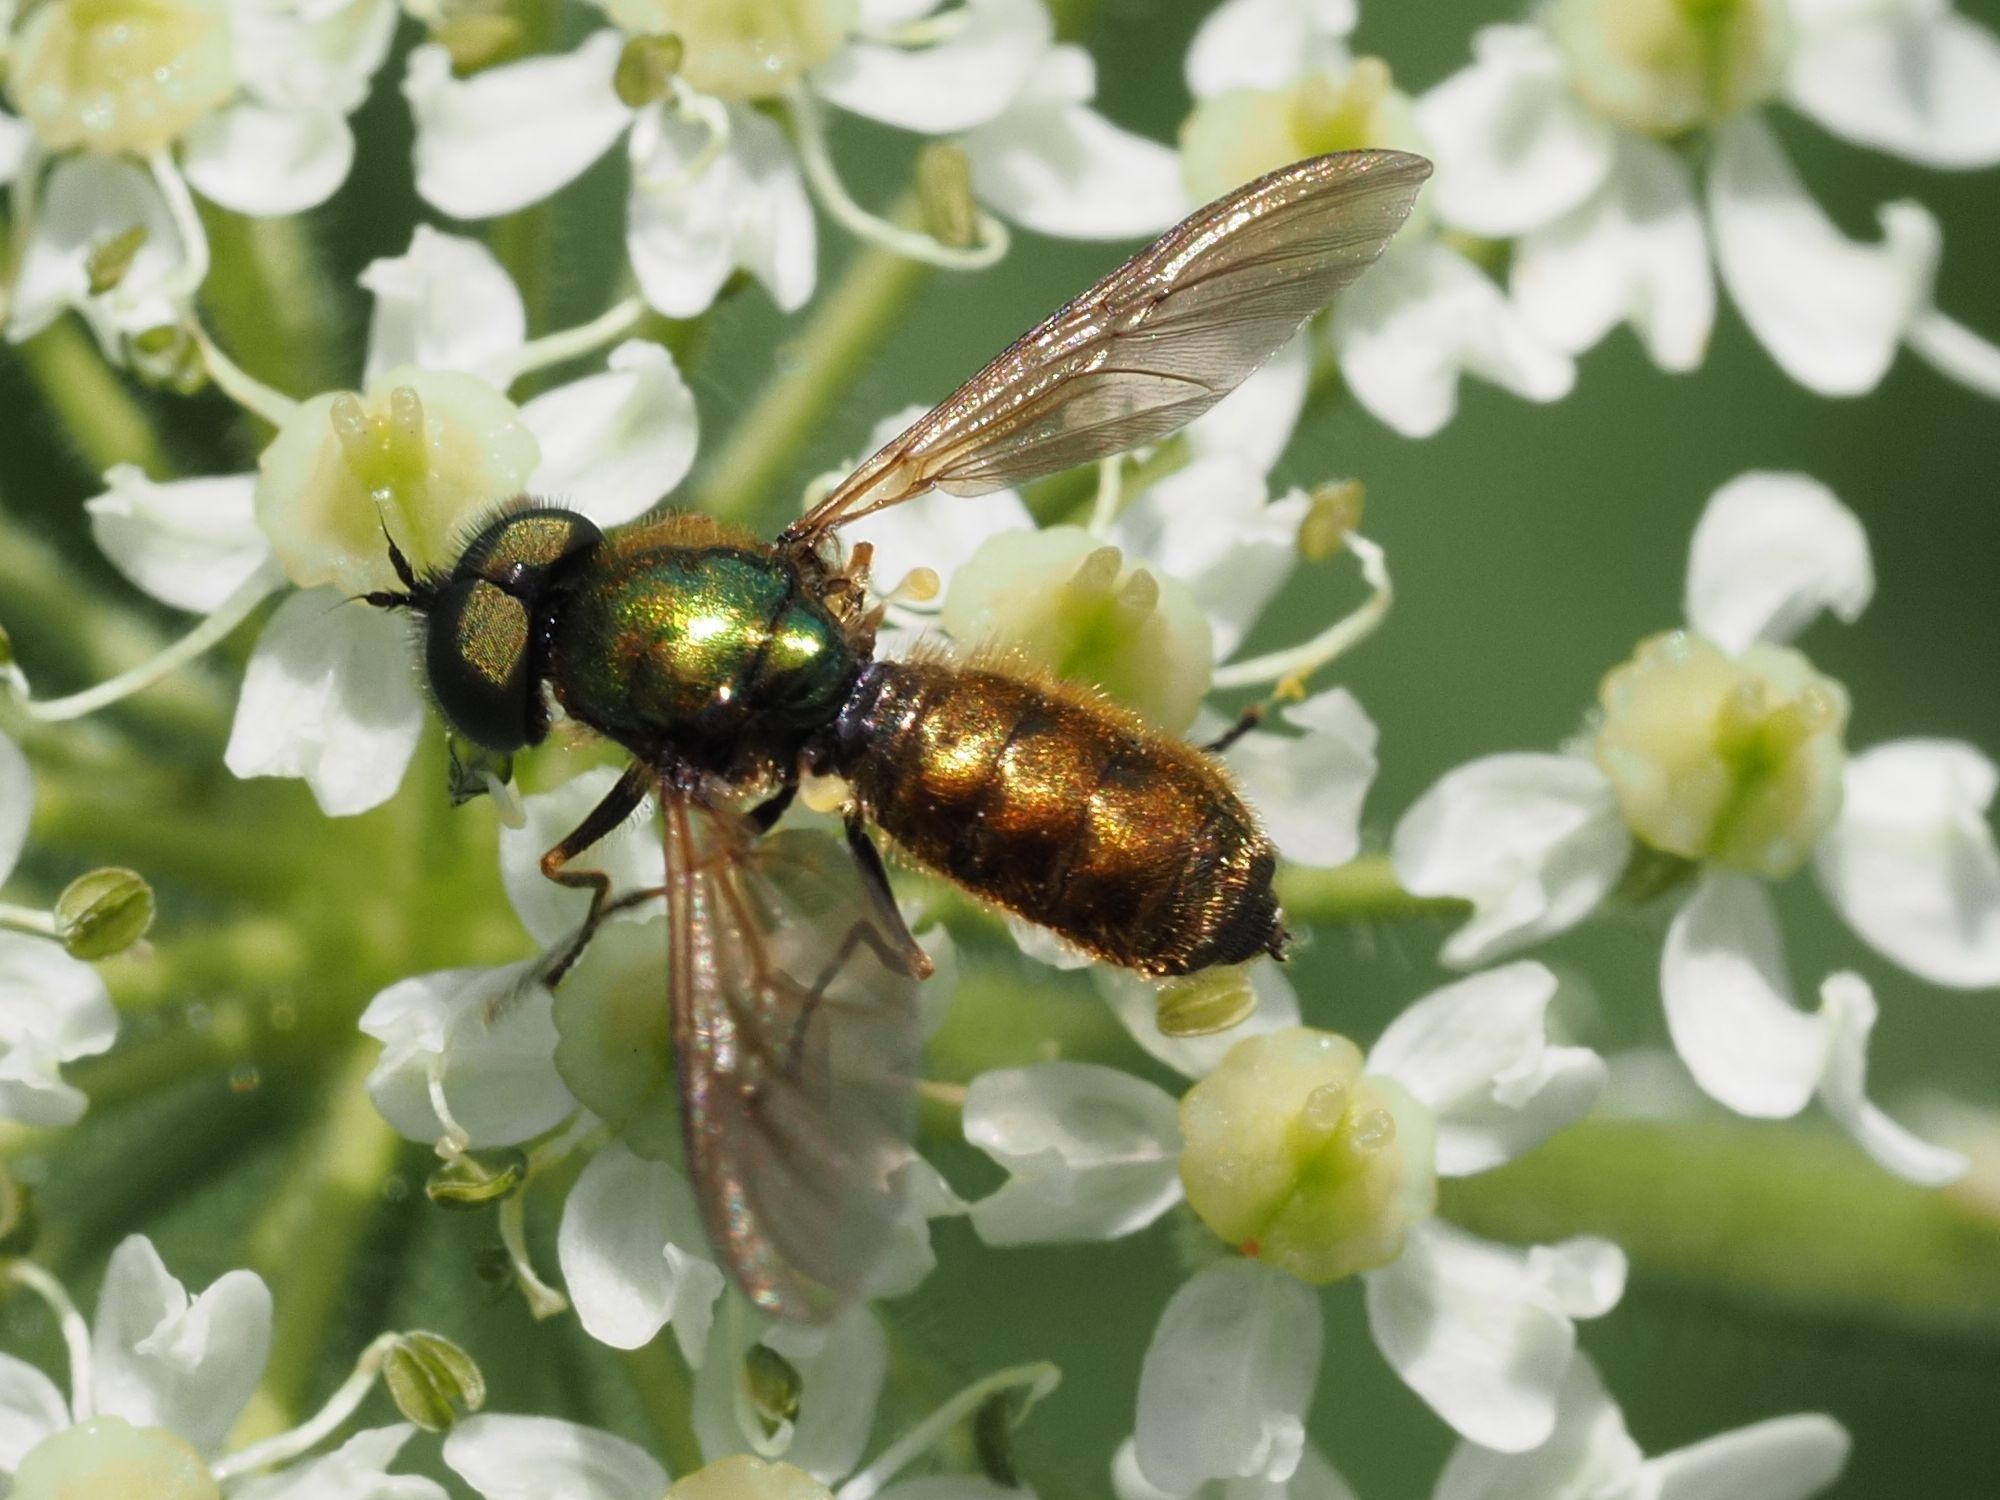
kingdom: Animalia
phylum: Arthropoda
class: Insecta
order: Diptera
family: Stratiomyidae
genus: Chloromyia
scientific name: Chloromyia formosa
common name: Soldier fly
